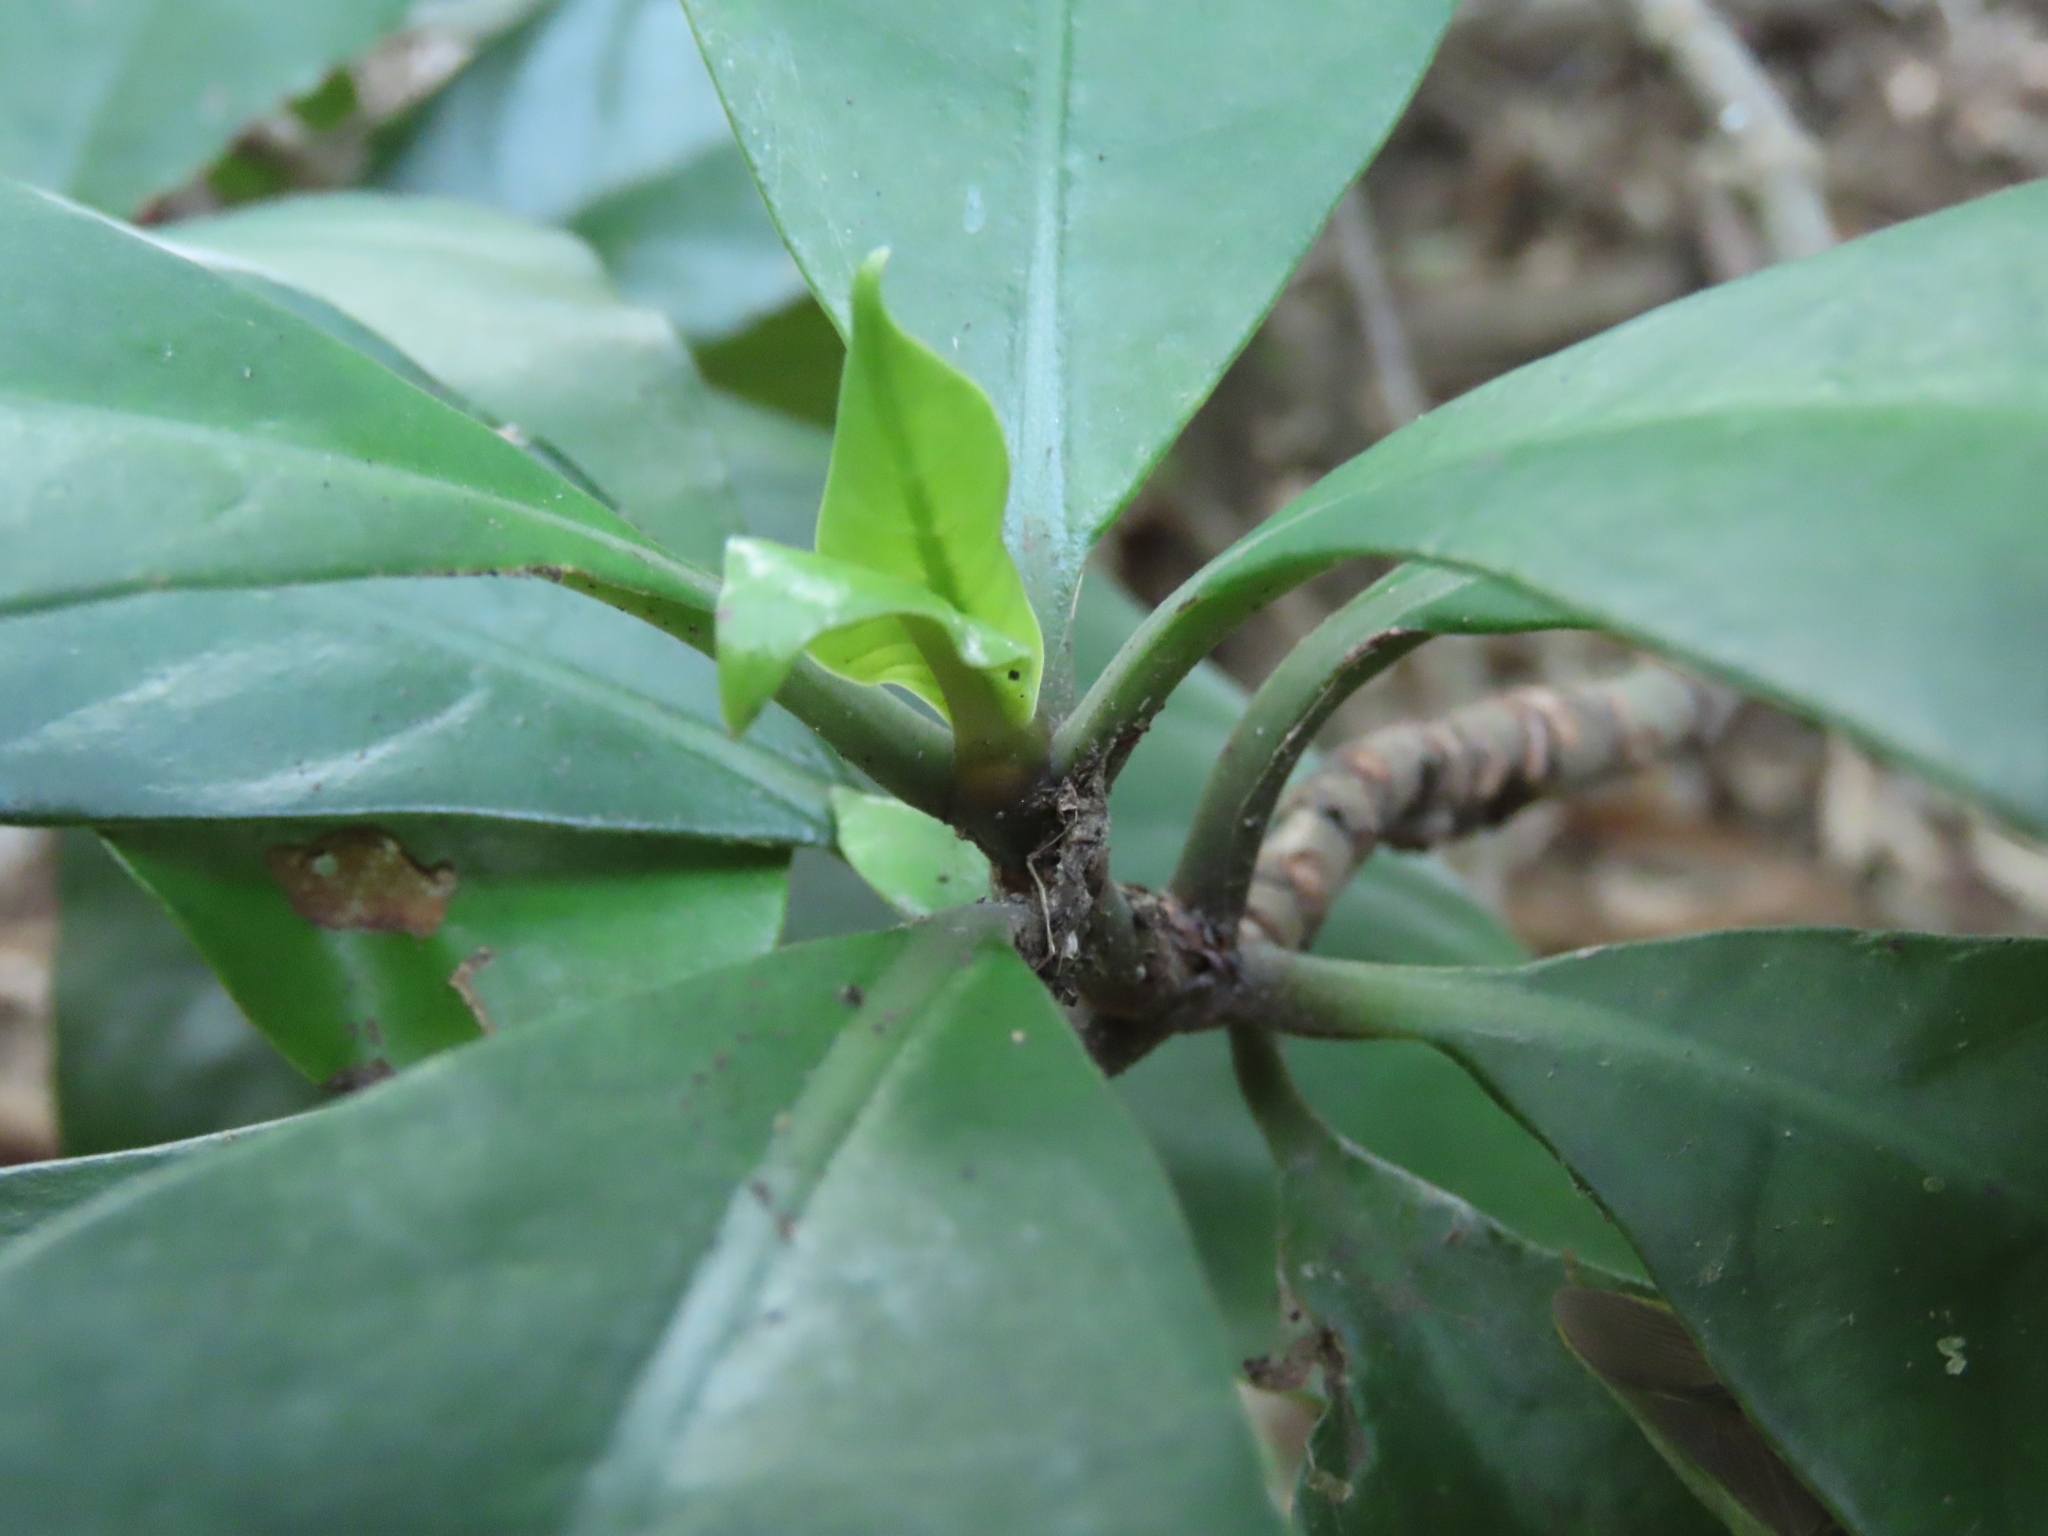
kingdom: Plantae
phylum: Tracheophyta
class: Magnoliopsida
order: Gentianales
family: Rubiaceae
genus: Psychotria
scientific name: Psychotria asiatica
